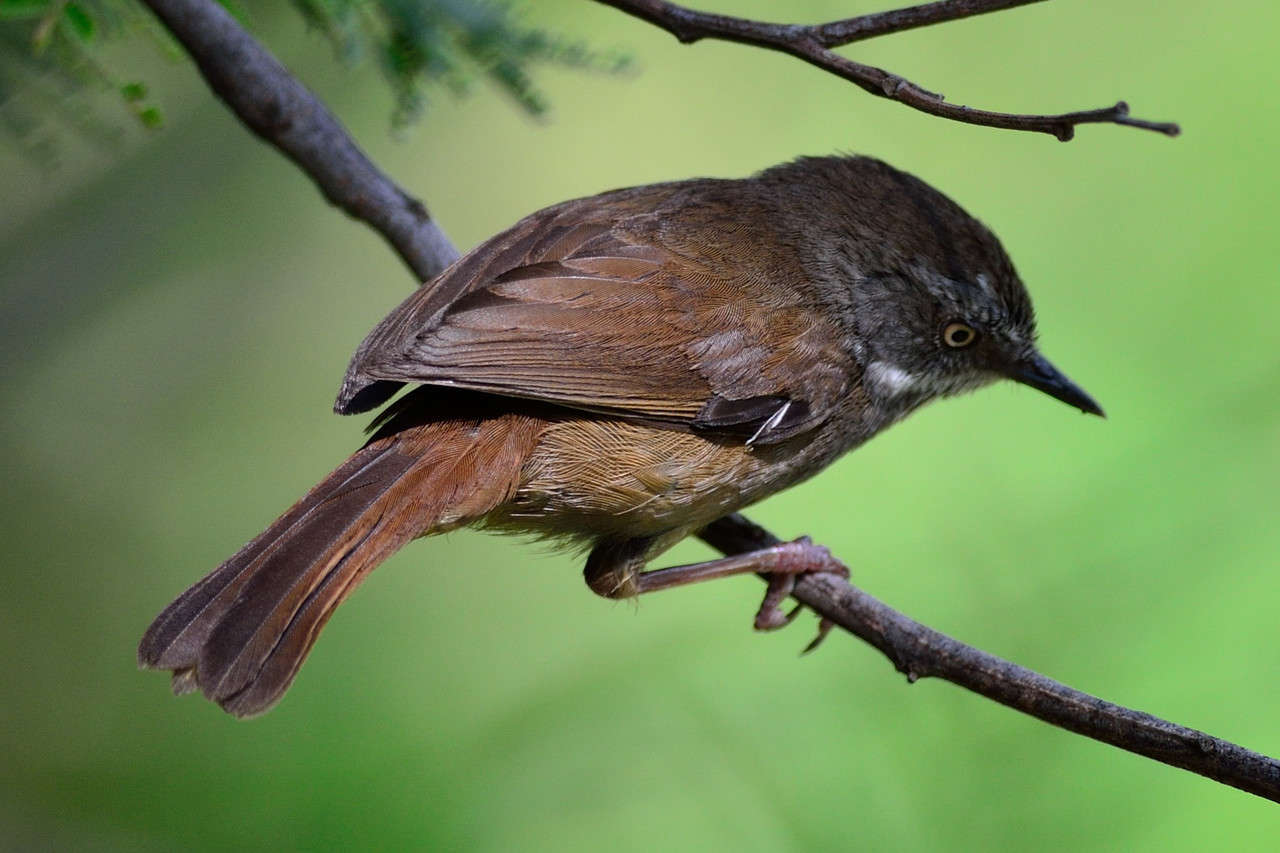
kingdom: Animalia
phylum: Chordata
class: Aves
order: Passeriformes
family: Acanthizidae
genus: Sericornis
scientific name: Sericornis frontalis
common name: White-browed scrubwren
